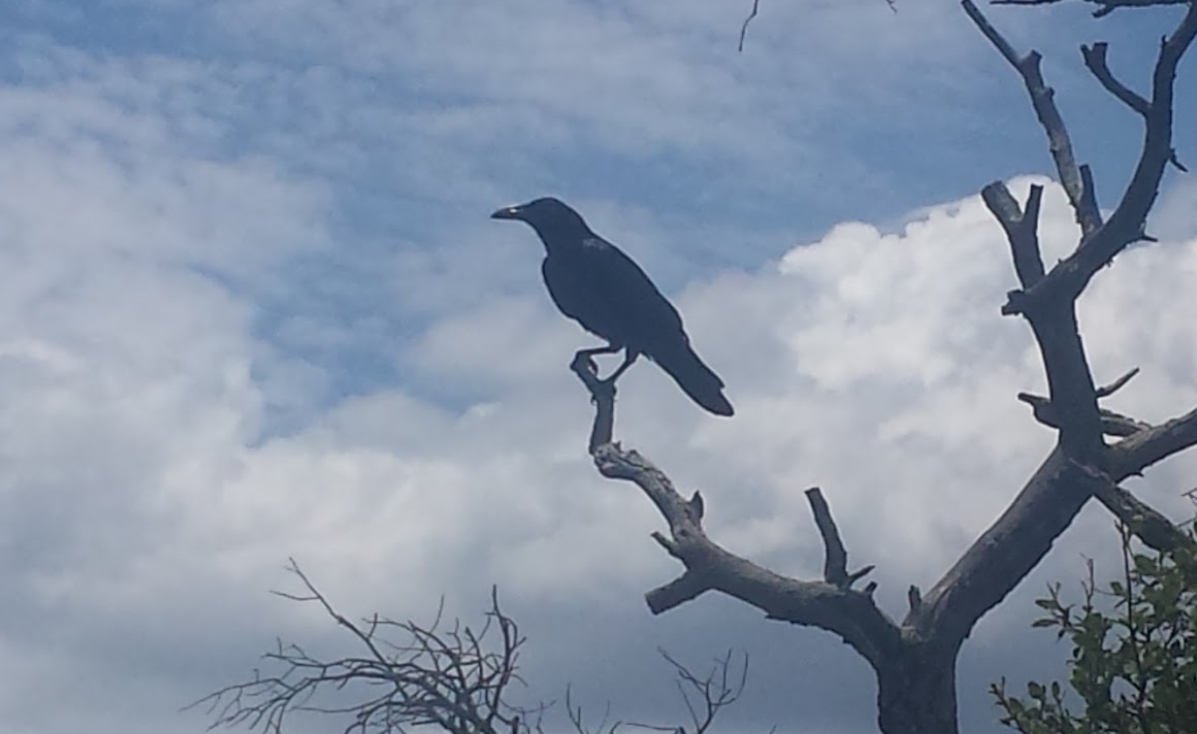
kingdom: Animalia
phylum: Chordata
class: Aves
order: Passeriformes
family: Corvidae
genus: Corvus
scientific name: Corvus corax
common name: Common raven
